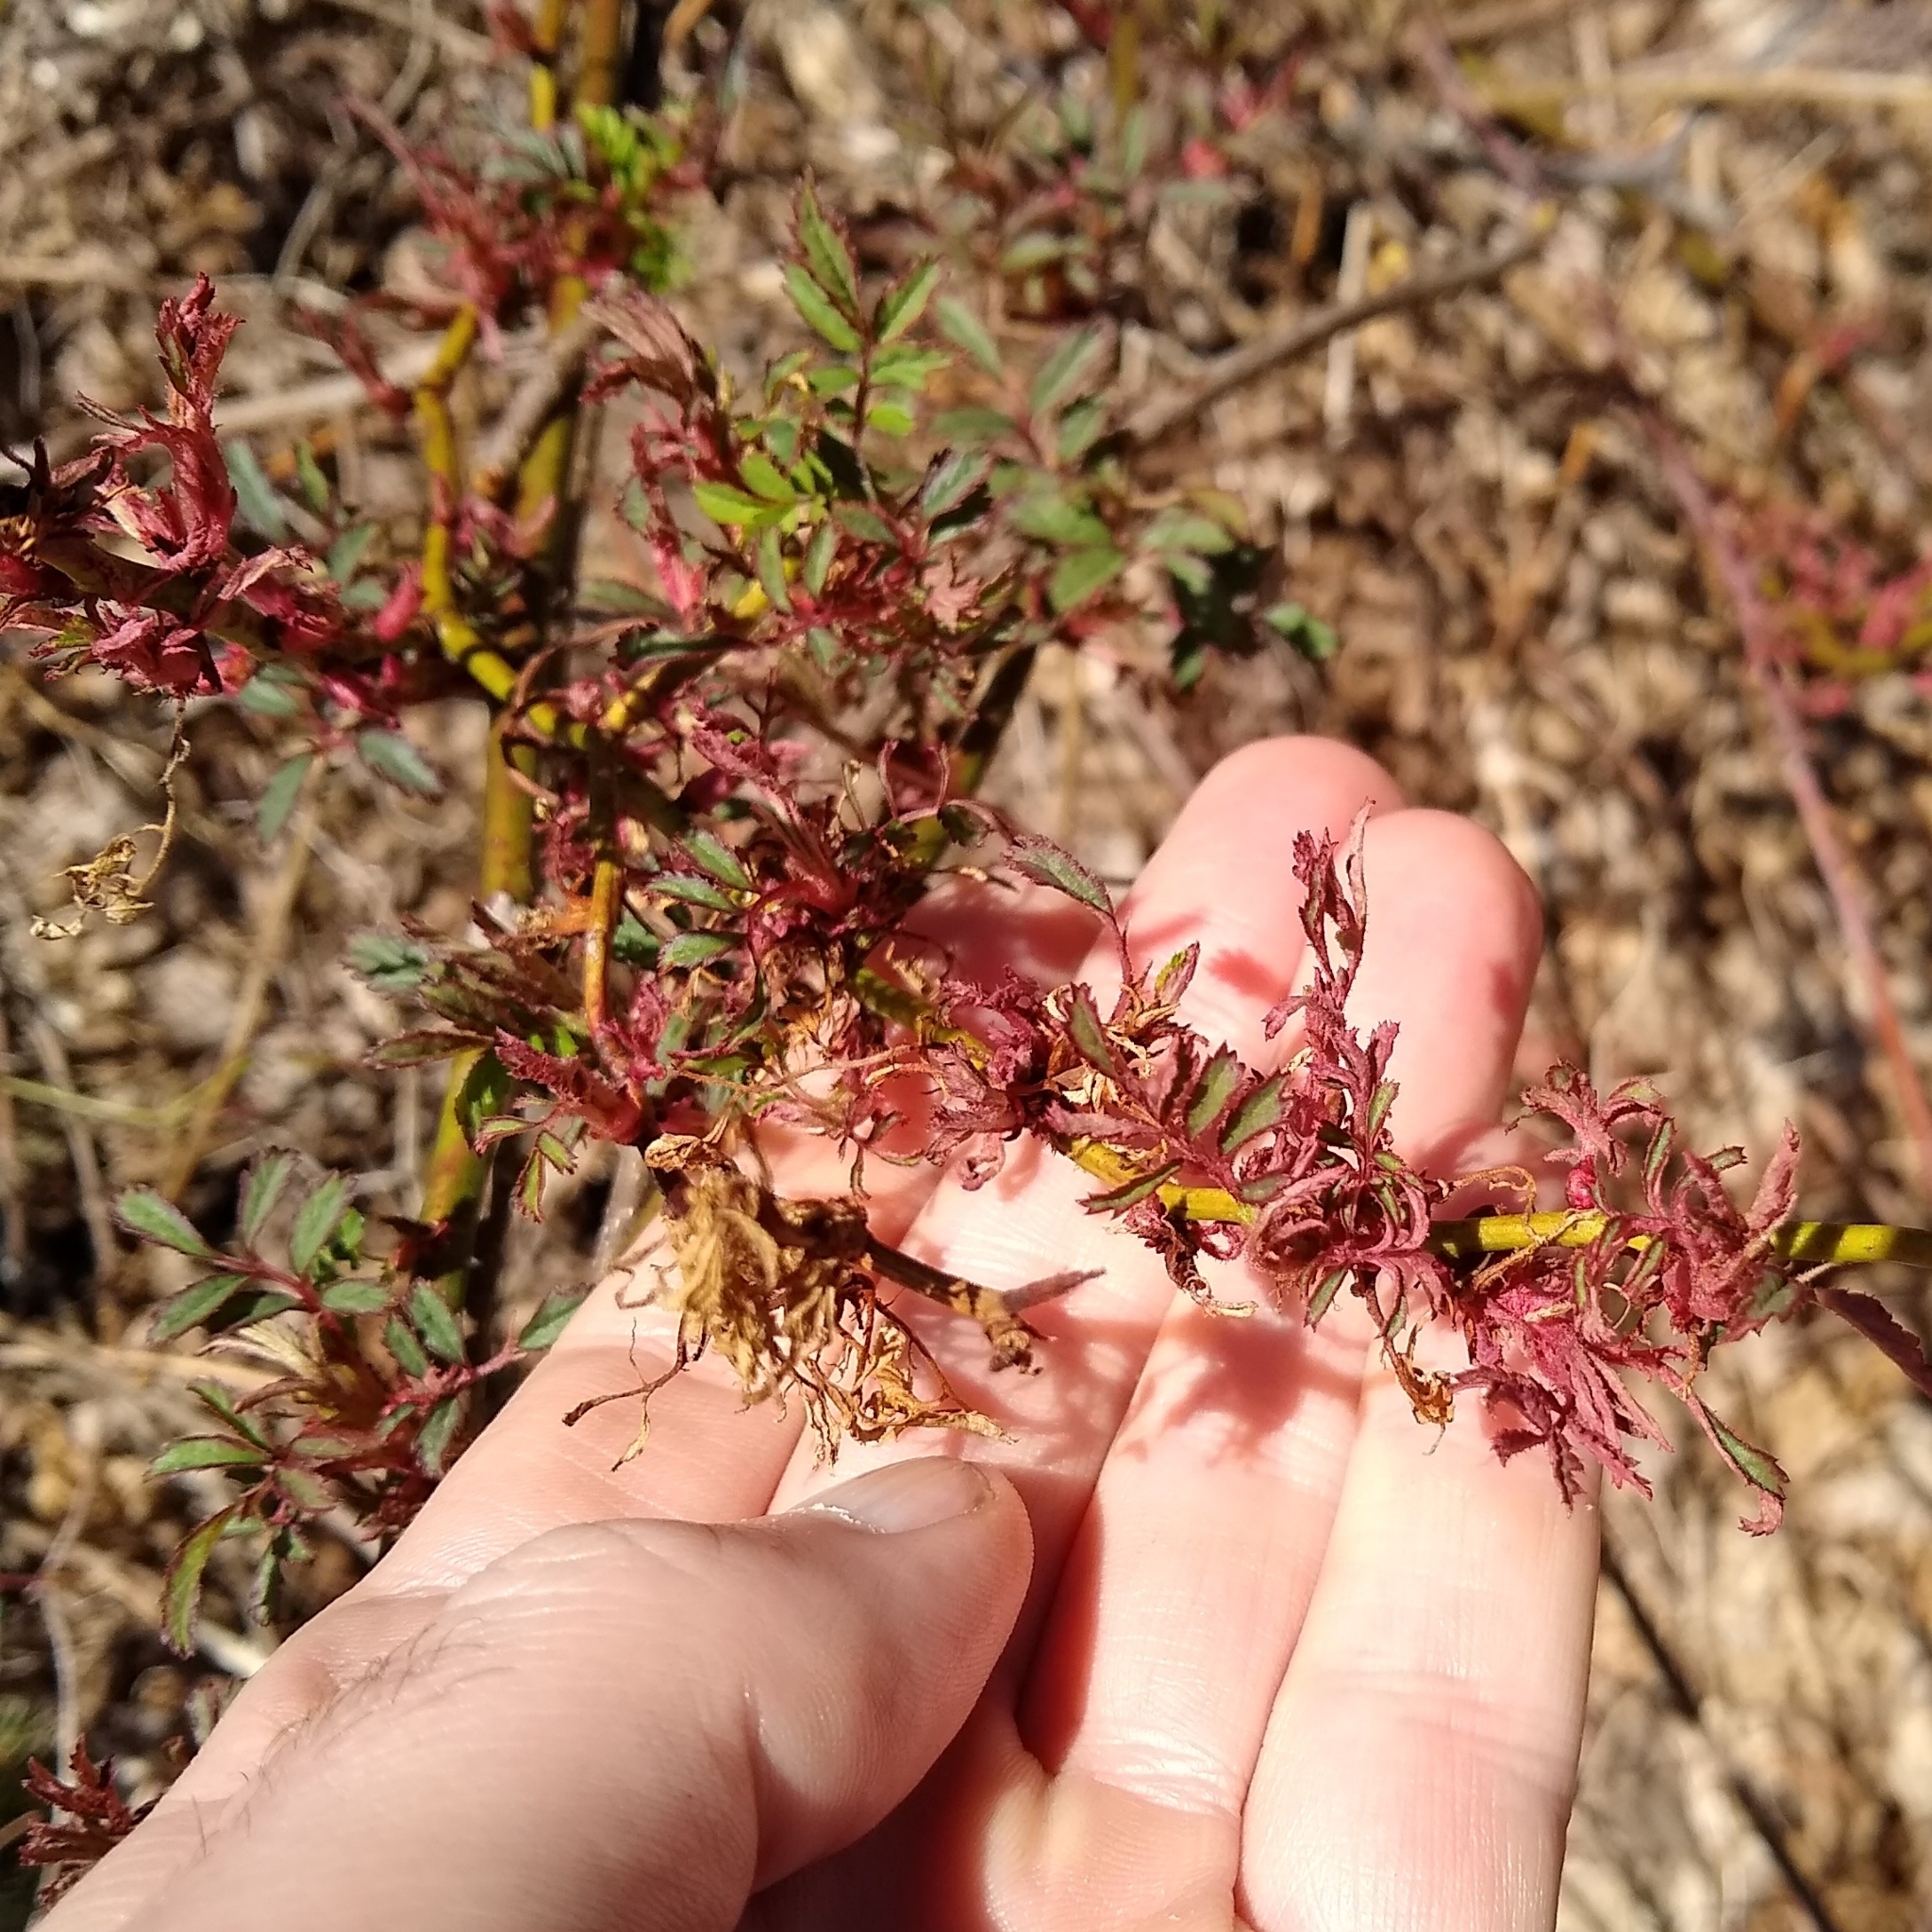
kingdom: Viruses
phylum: Negarnaviricota
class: Ellioviricetes
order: Bunyavirales
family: Fimoviridae
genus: Emaravirus
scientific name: Emaravirus rosae
